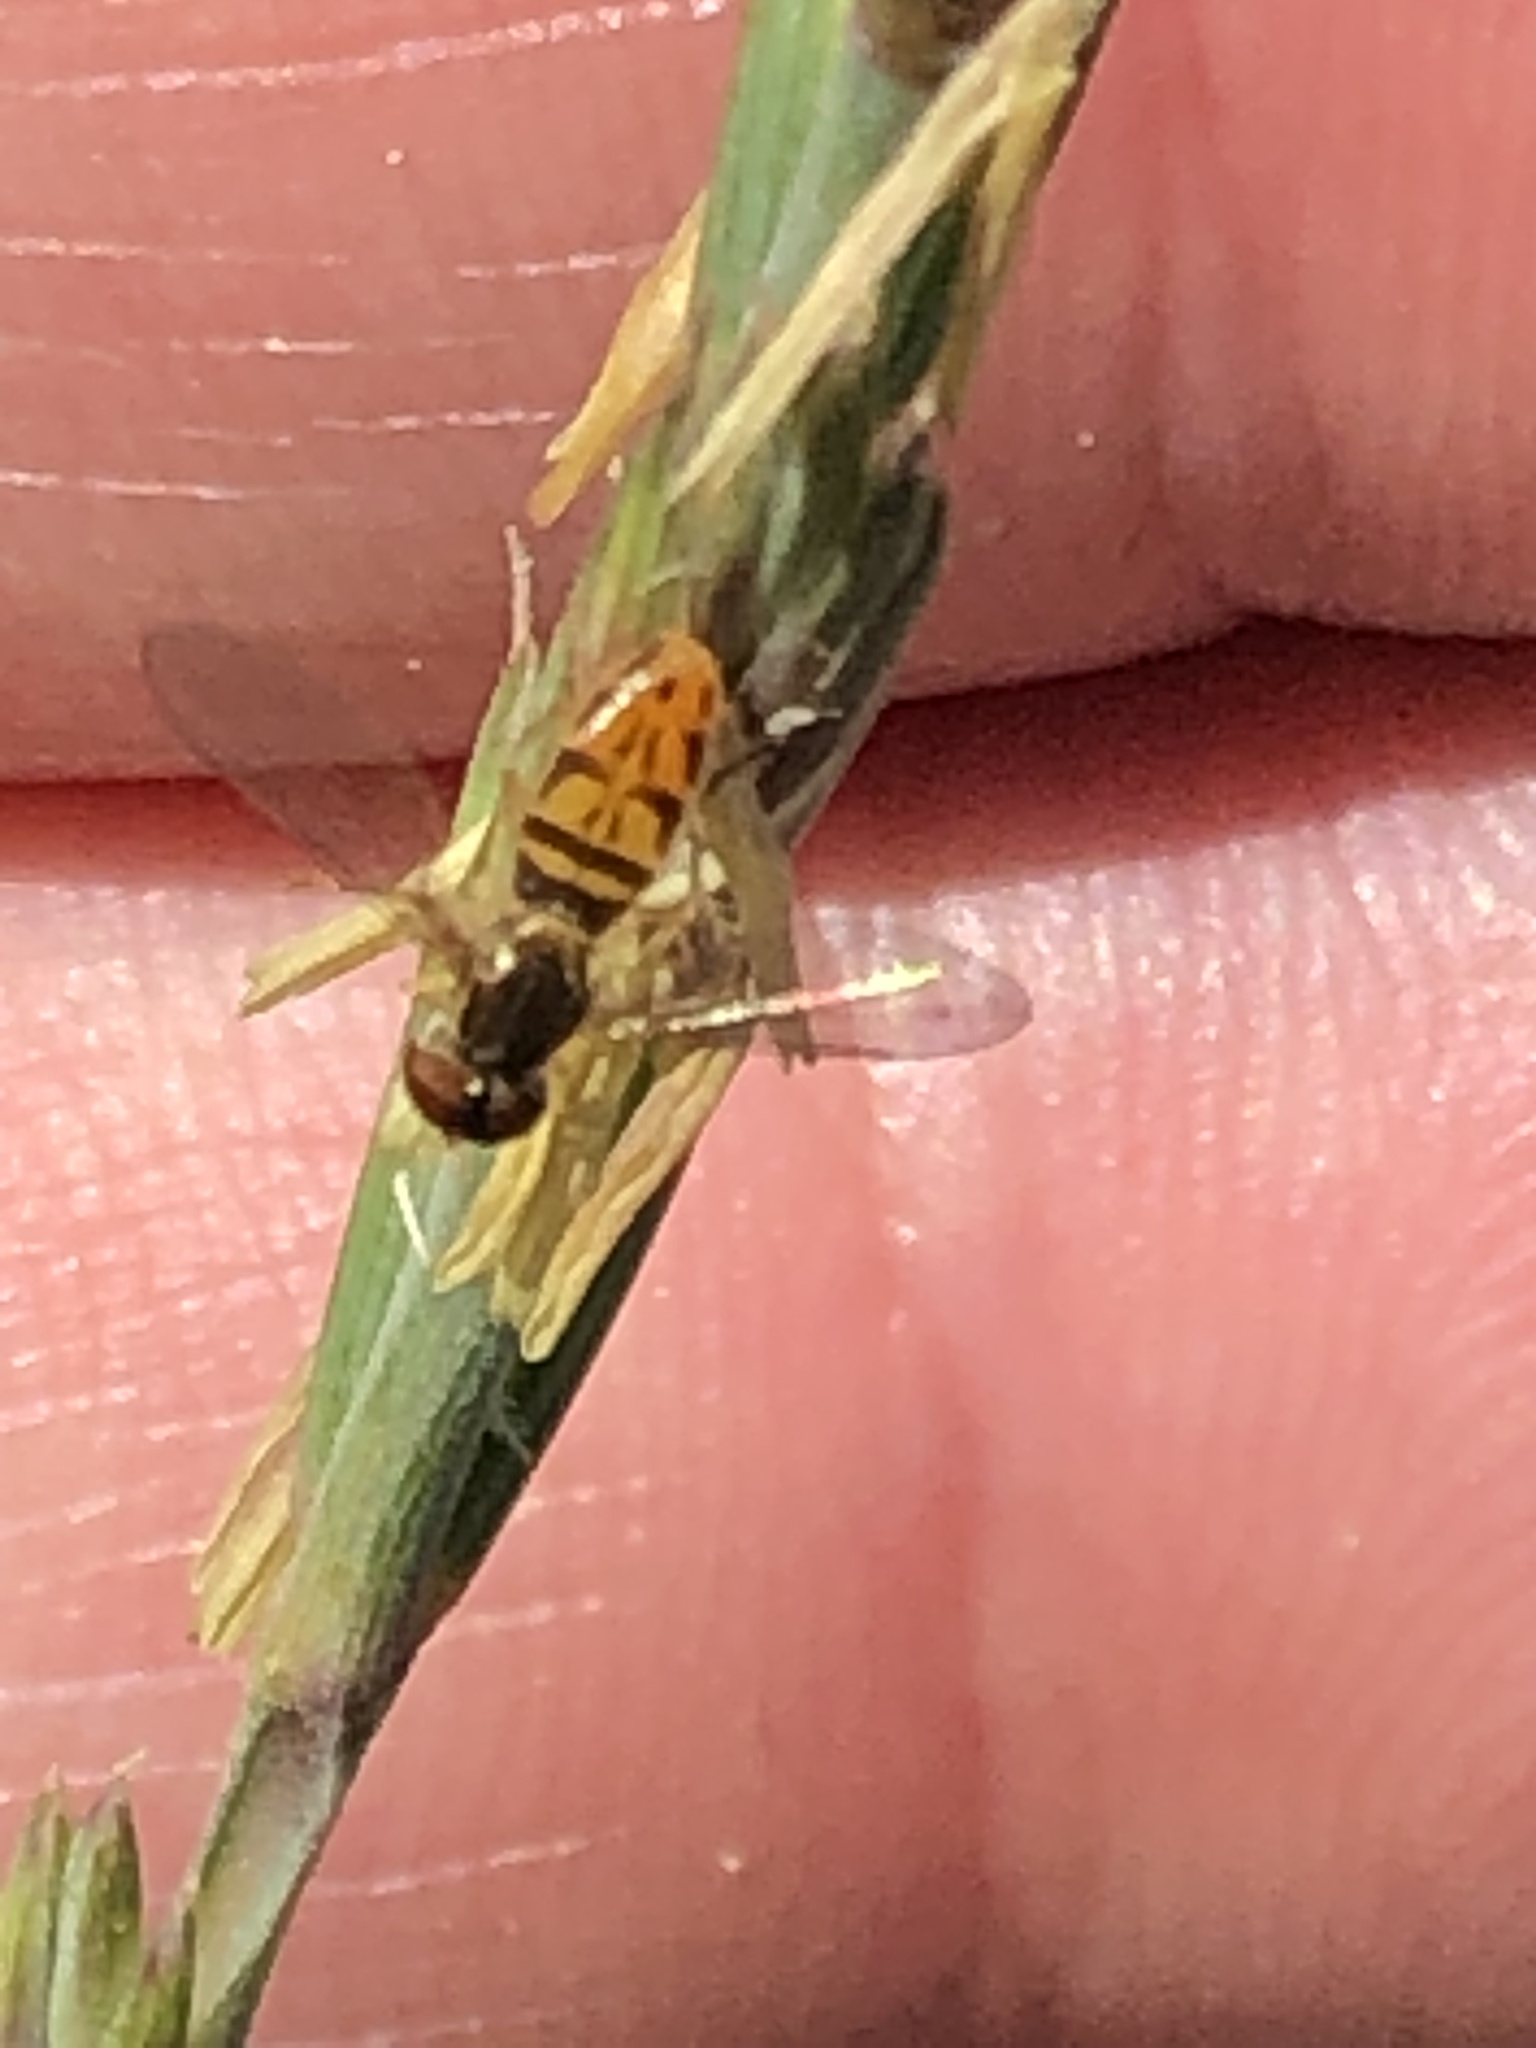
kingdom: Animalia
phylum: Arthropoda
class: Insecta
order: Diptera
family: Syrphidae
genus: Toxomerus
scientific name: Toxomerus marginatus
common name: Syrphid fly
